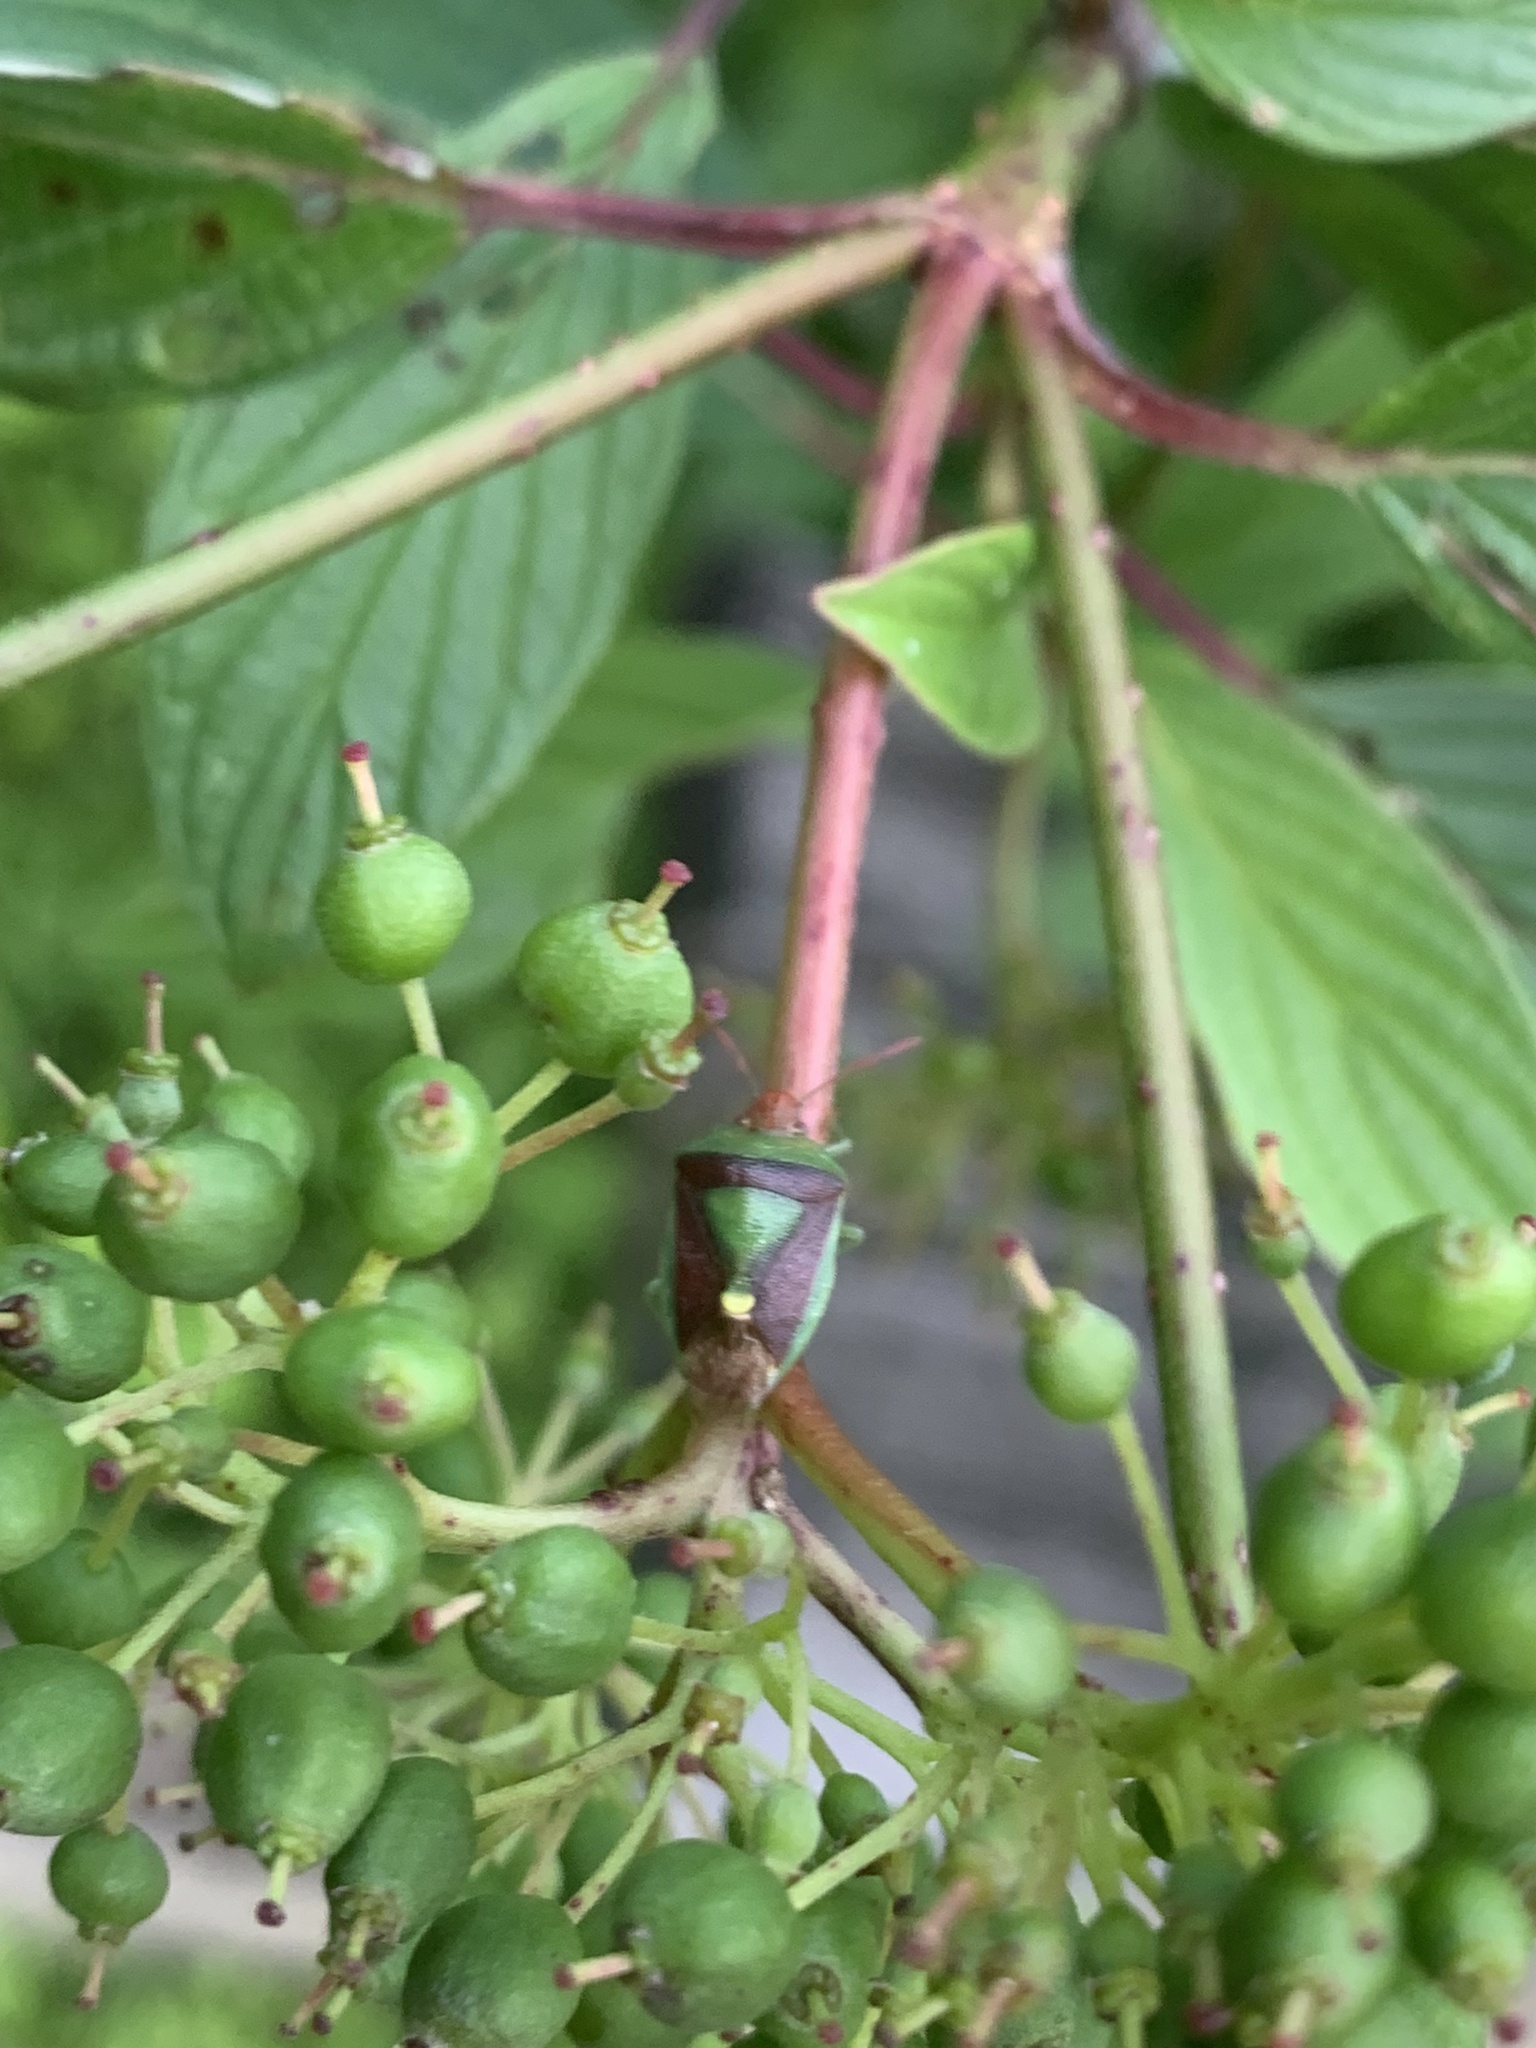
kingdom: Animalia
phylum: Arthropoda
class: Insecta
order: Hemiptera
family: Pentatomidae
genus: Banasa
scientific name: Banasa dimidiata
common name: Green burgundy stink bug
